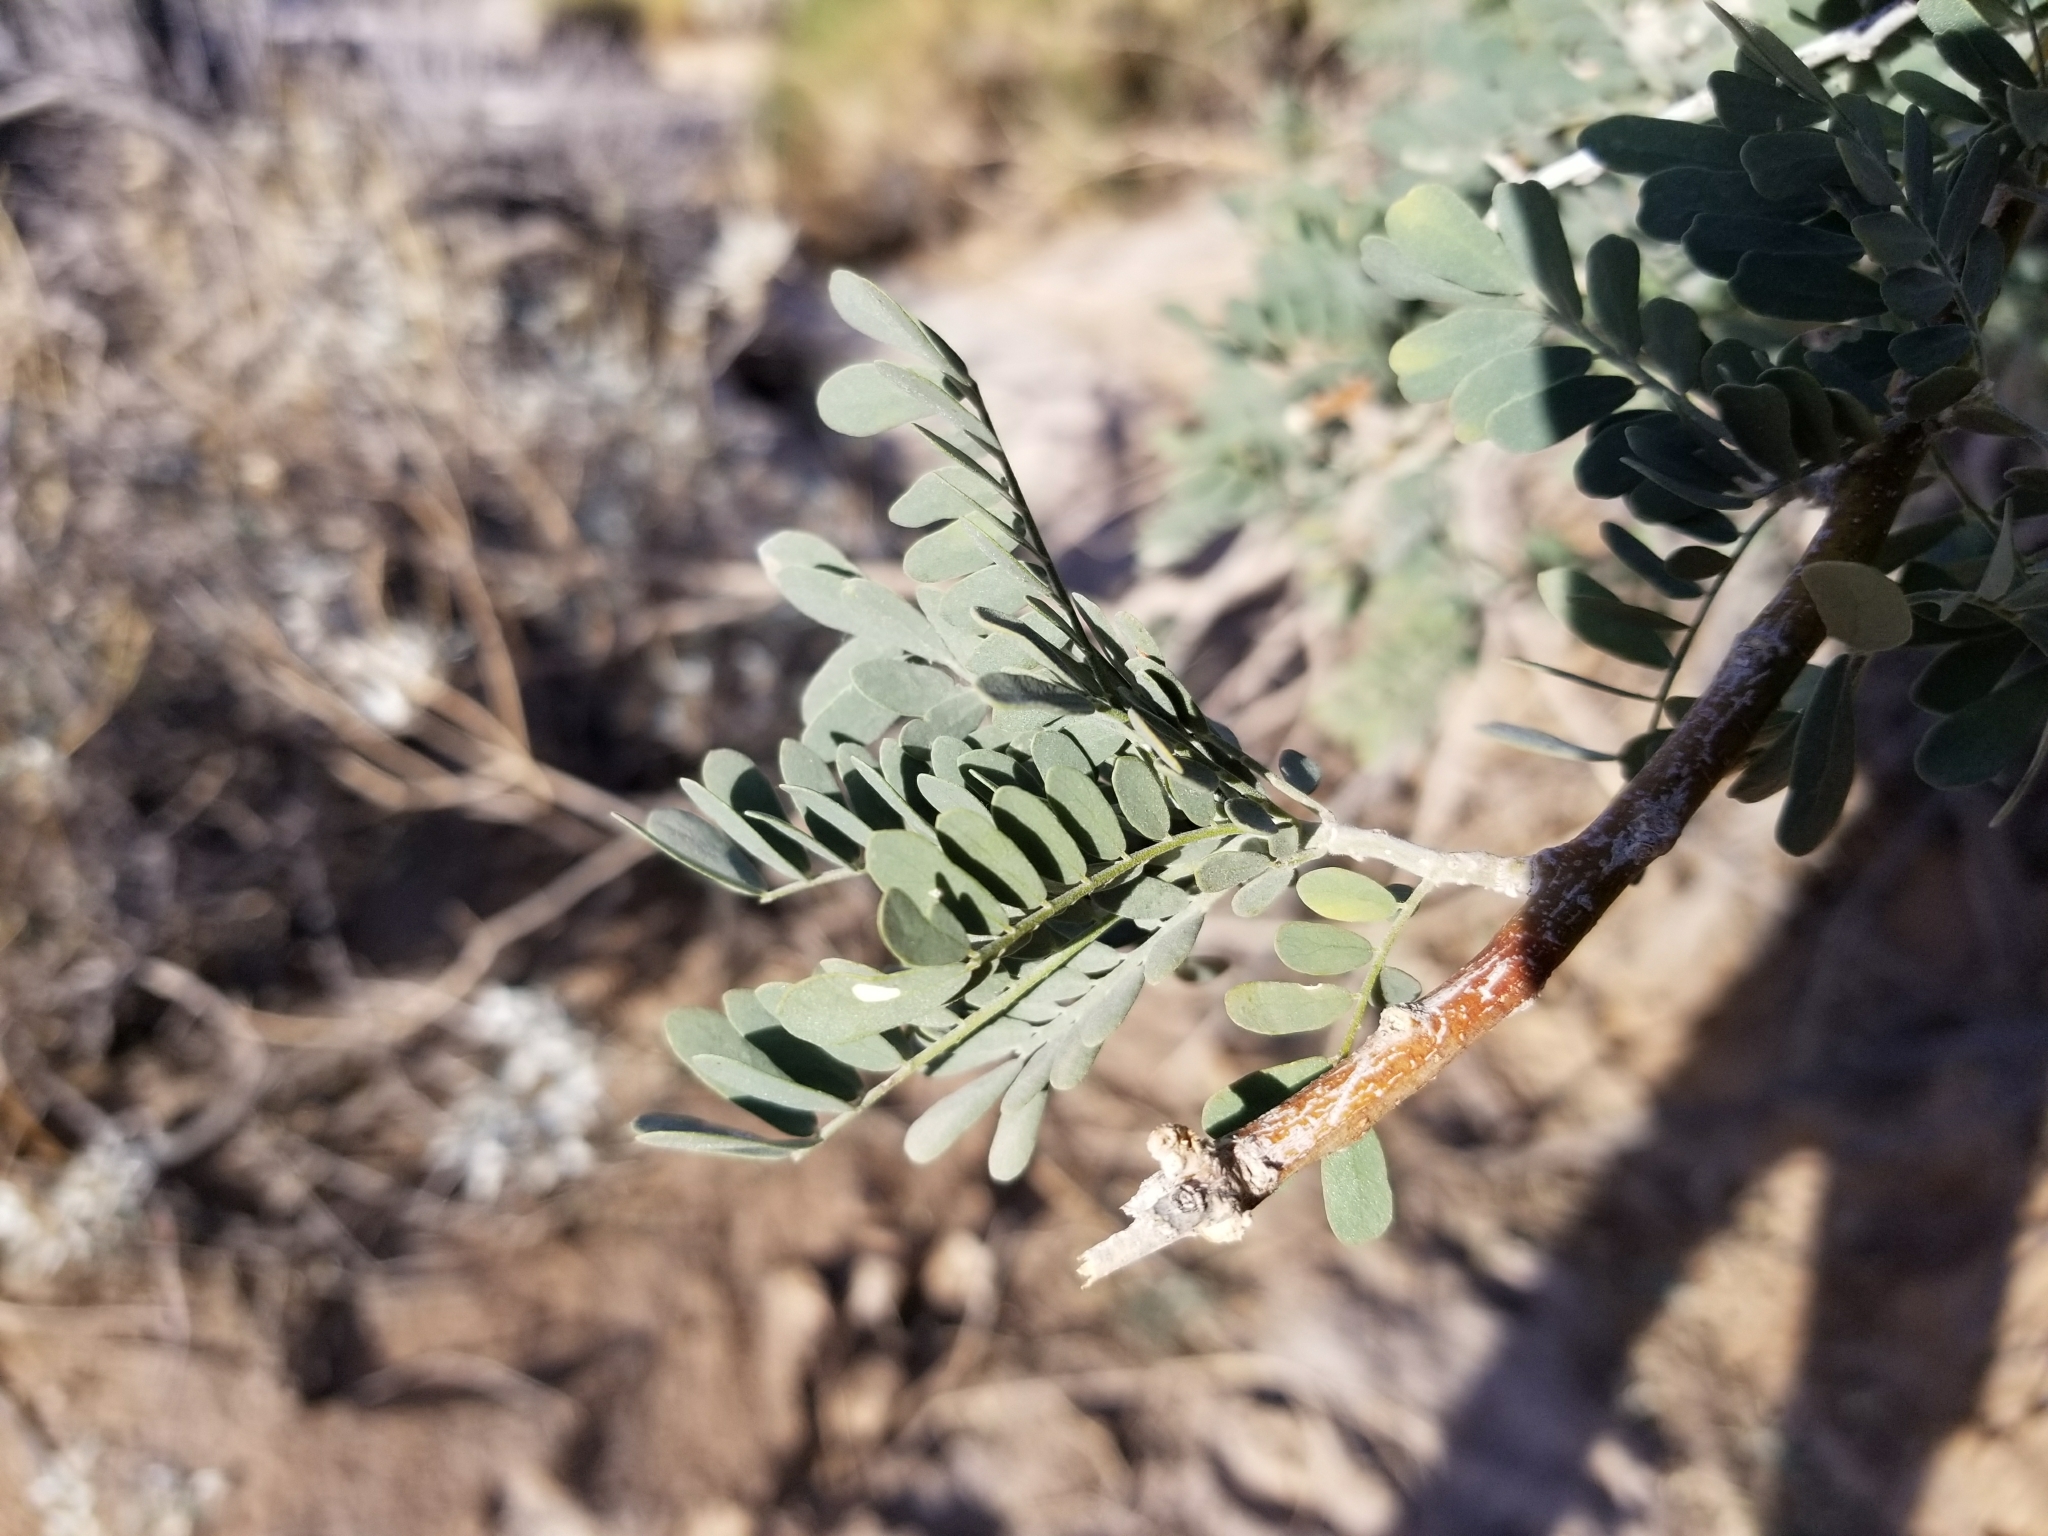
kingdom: Plantae
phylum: Tracheophyta
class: Magnoliopsida
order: Fabales
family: Fabaceae
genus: Olneya
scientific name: Olneya tesota
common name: Desert ironwood
